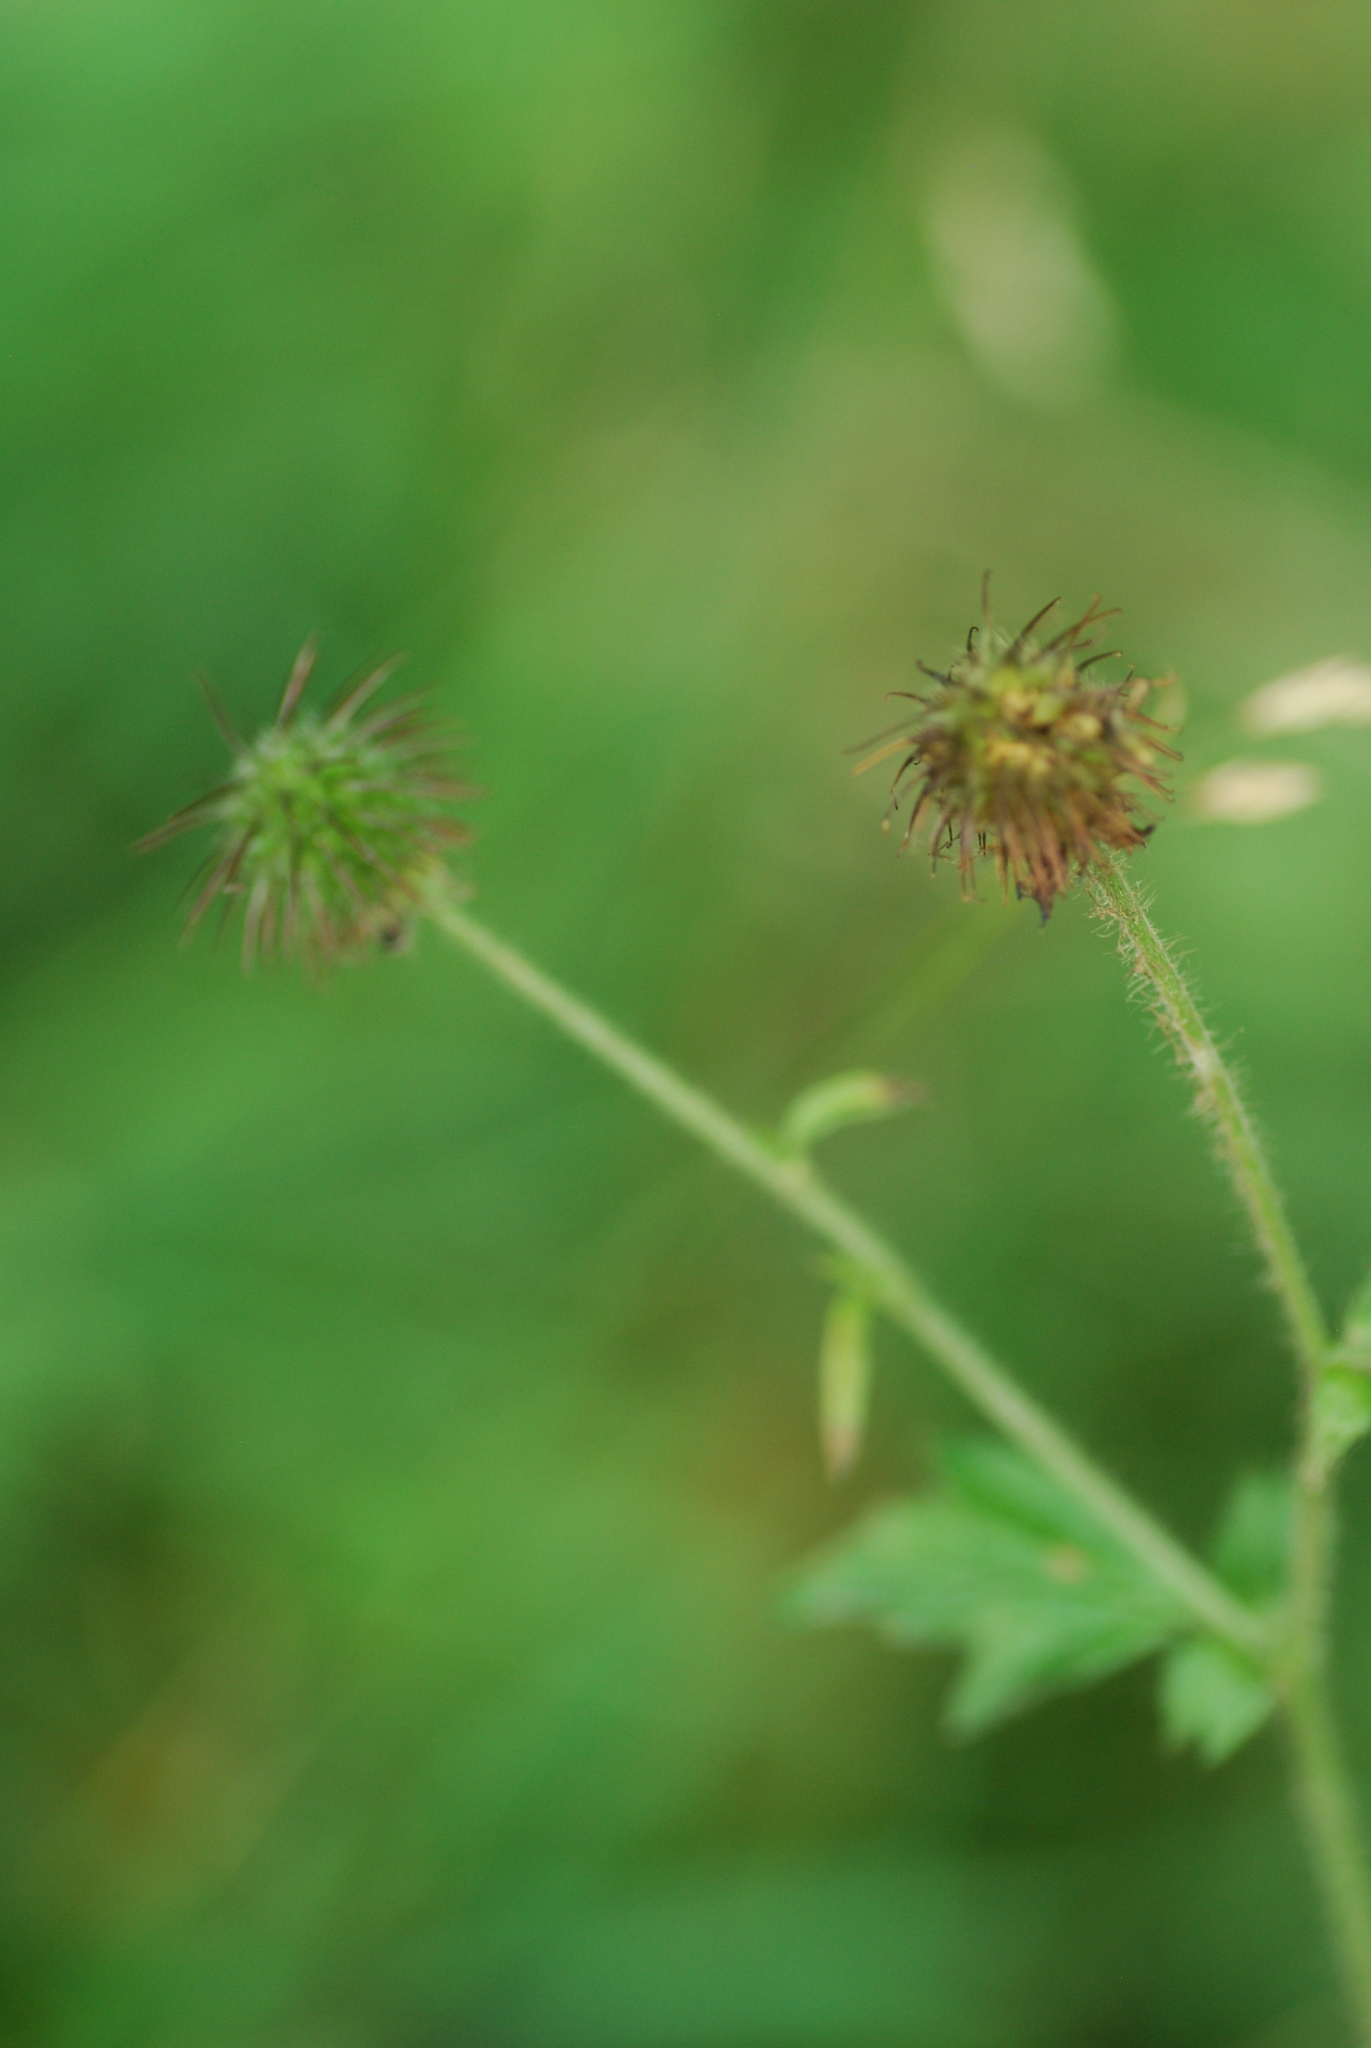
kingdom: Plantae
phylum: Tracheophyta
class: Magnoliopsida
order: Rosales
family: Rosaceae
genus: Geum
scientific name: Geum urbanum
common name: Wood avens
